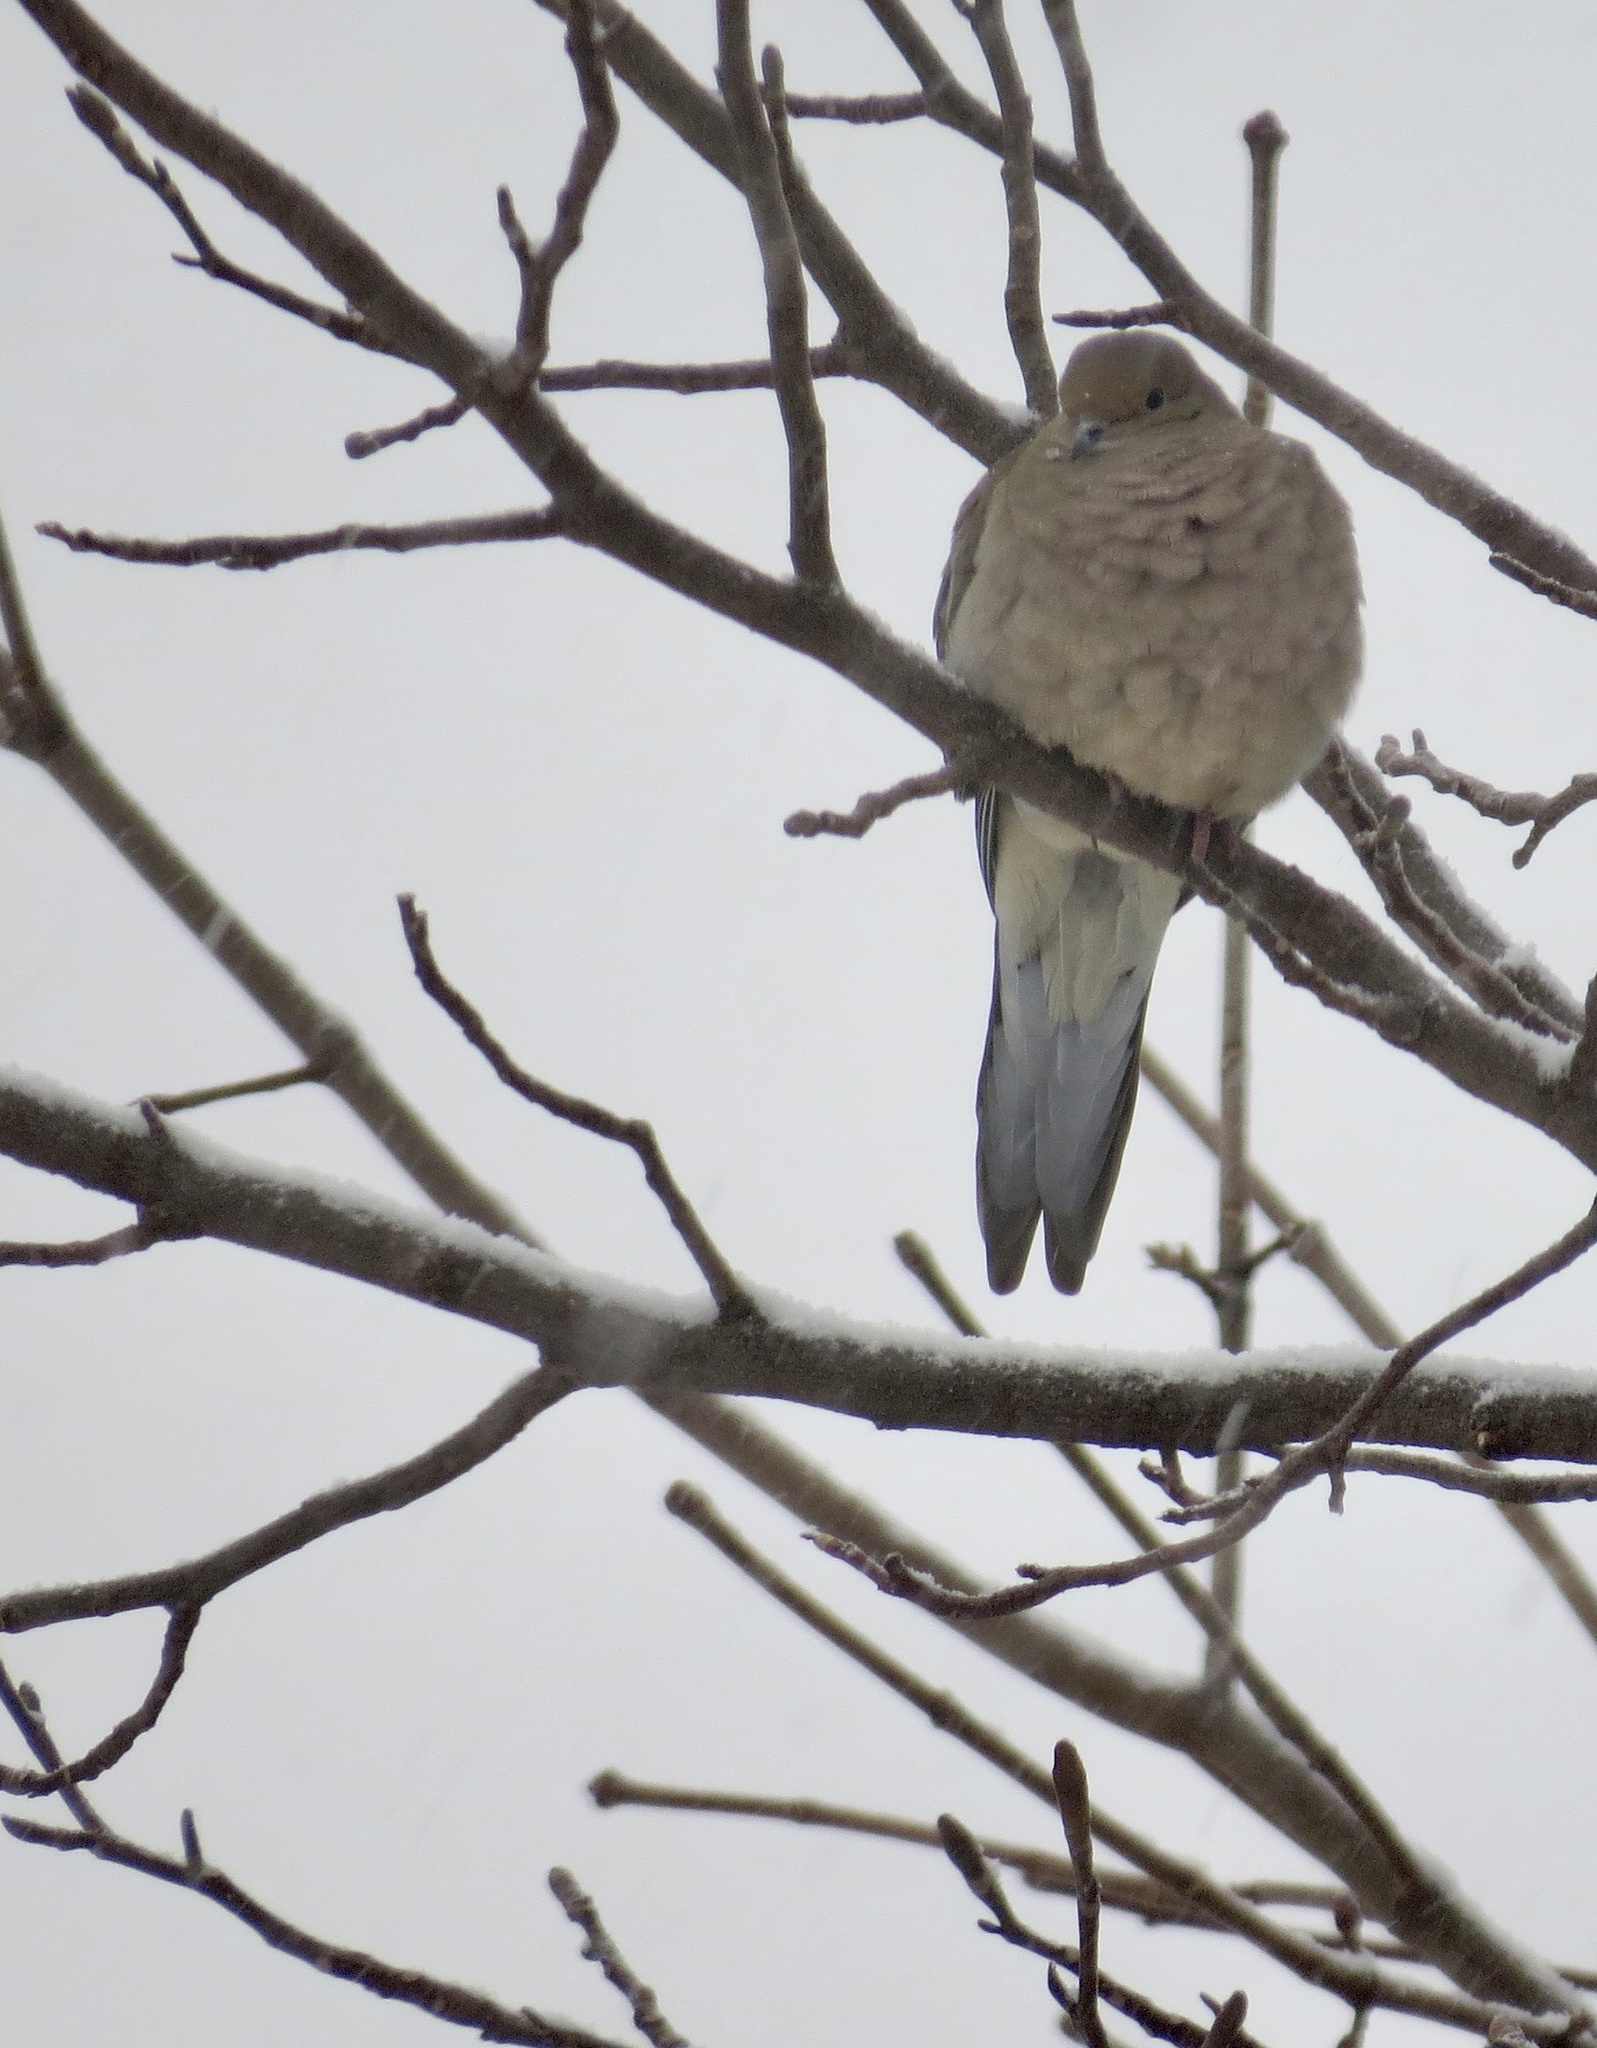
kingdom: Animalia
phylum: Chordata
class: Aves
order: Columbiformes
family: Columbidae
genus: Zenaida
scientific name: Zenaida macroura
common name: Mourning dove
